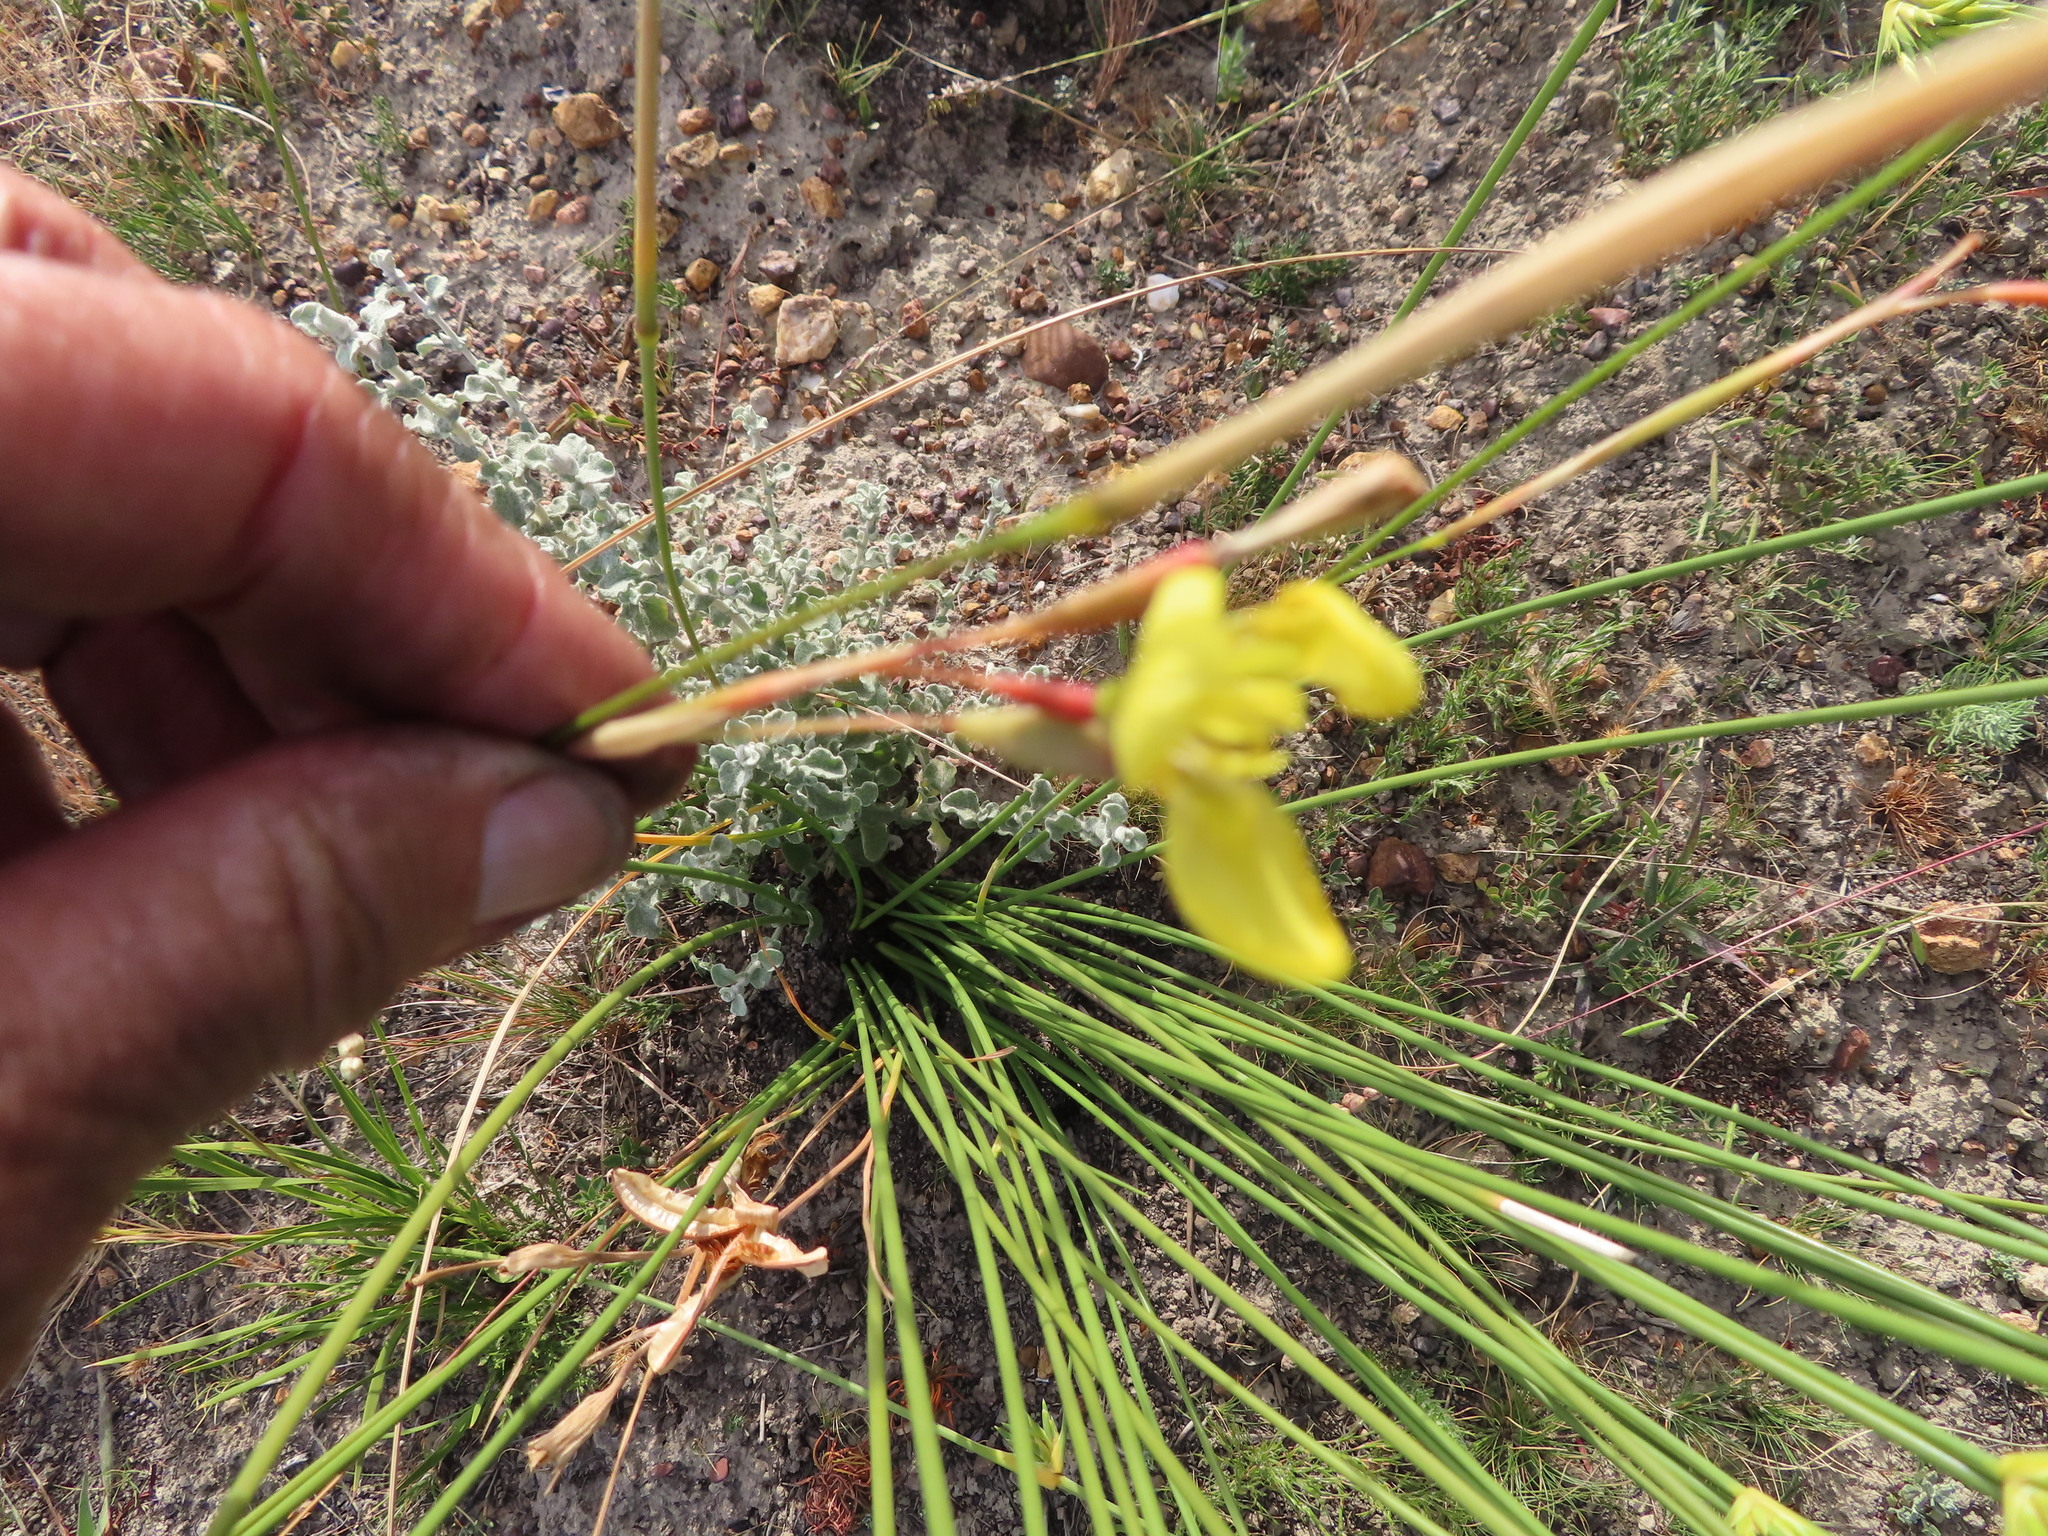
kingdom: Plantae
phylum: Tracheophyta
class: Liliopsida
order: Asparagales
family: Iridaceae
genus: Moraea
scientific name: Moraea bellendenii
